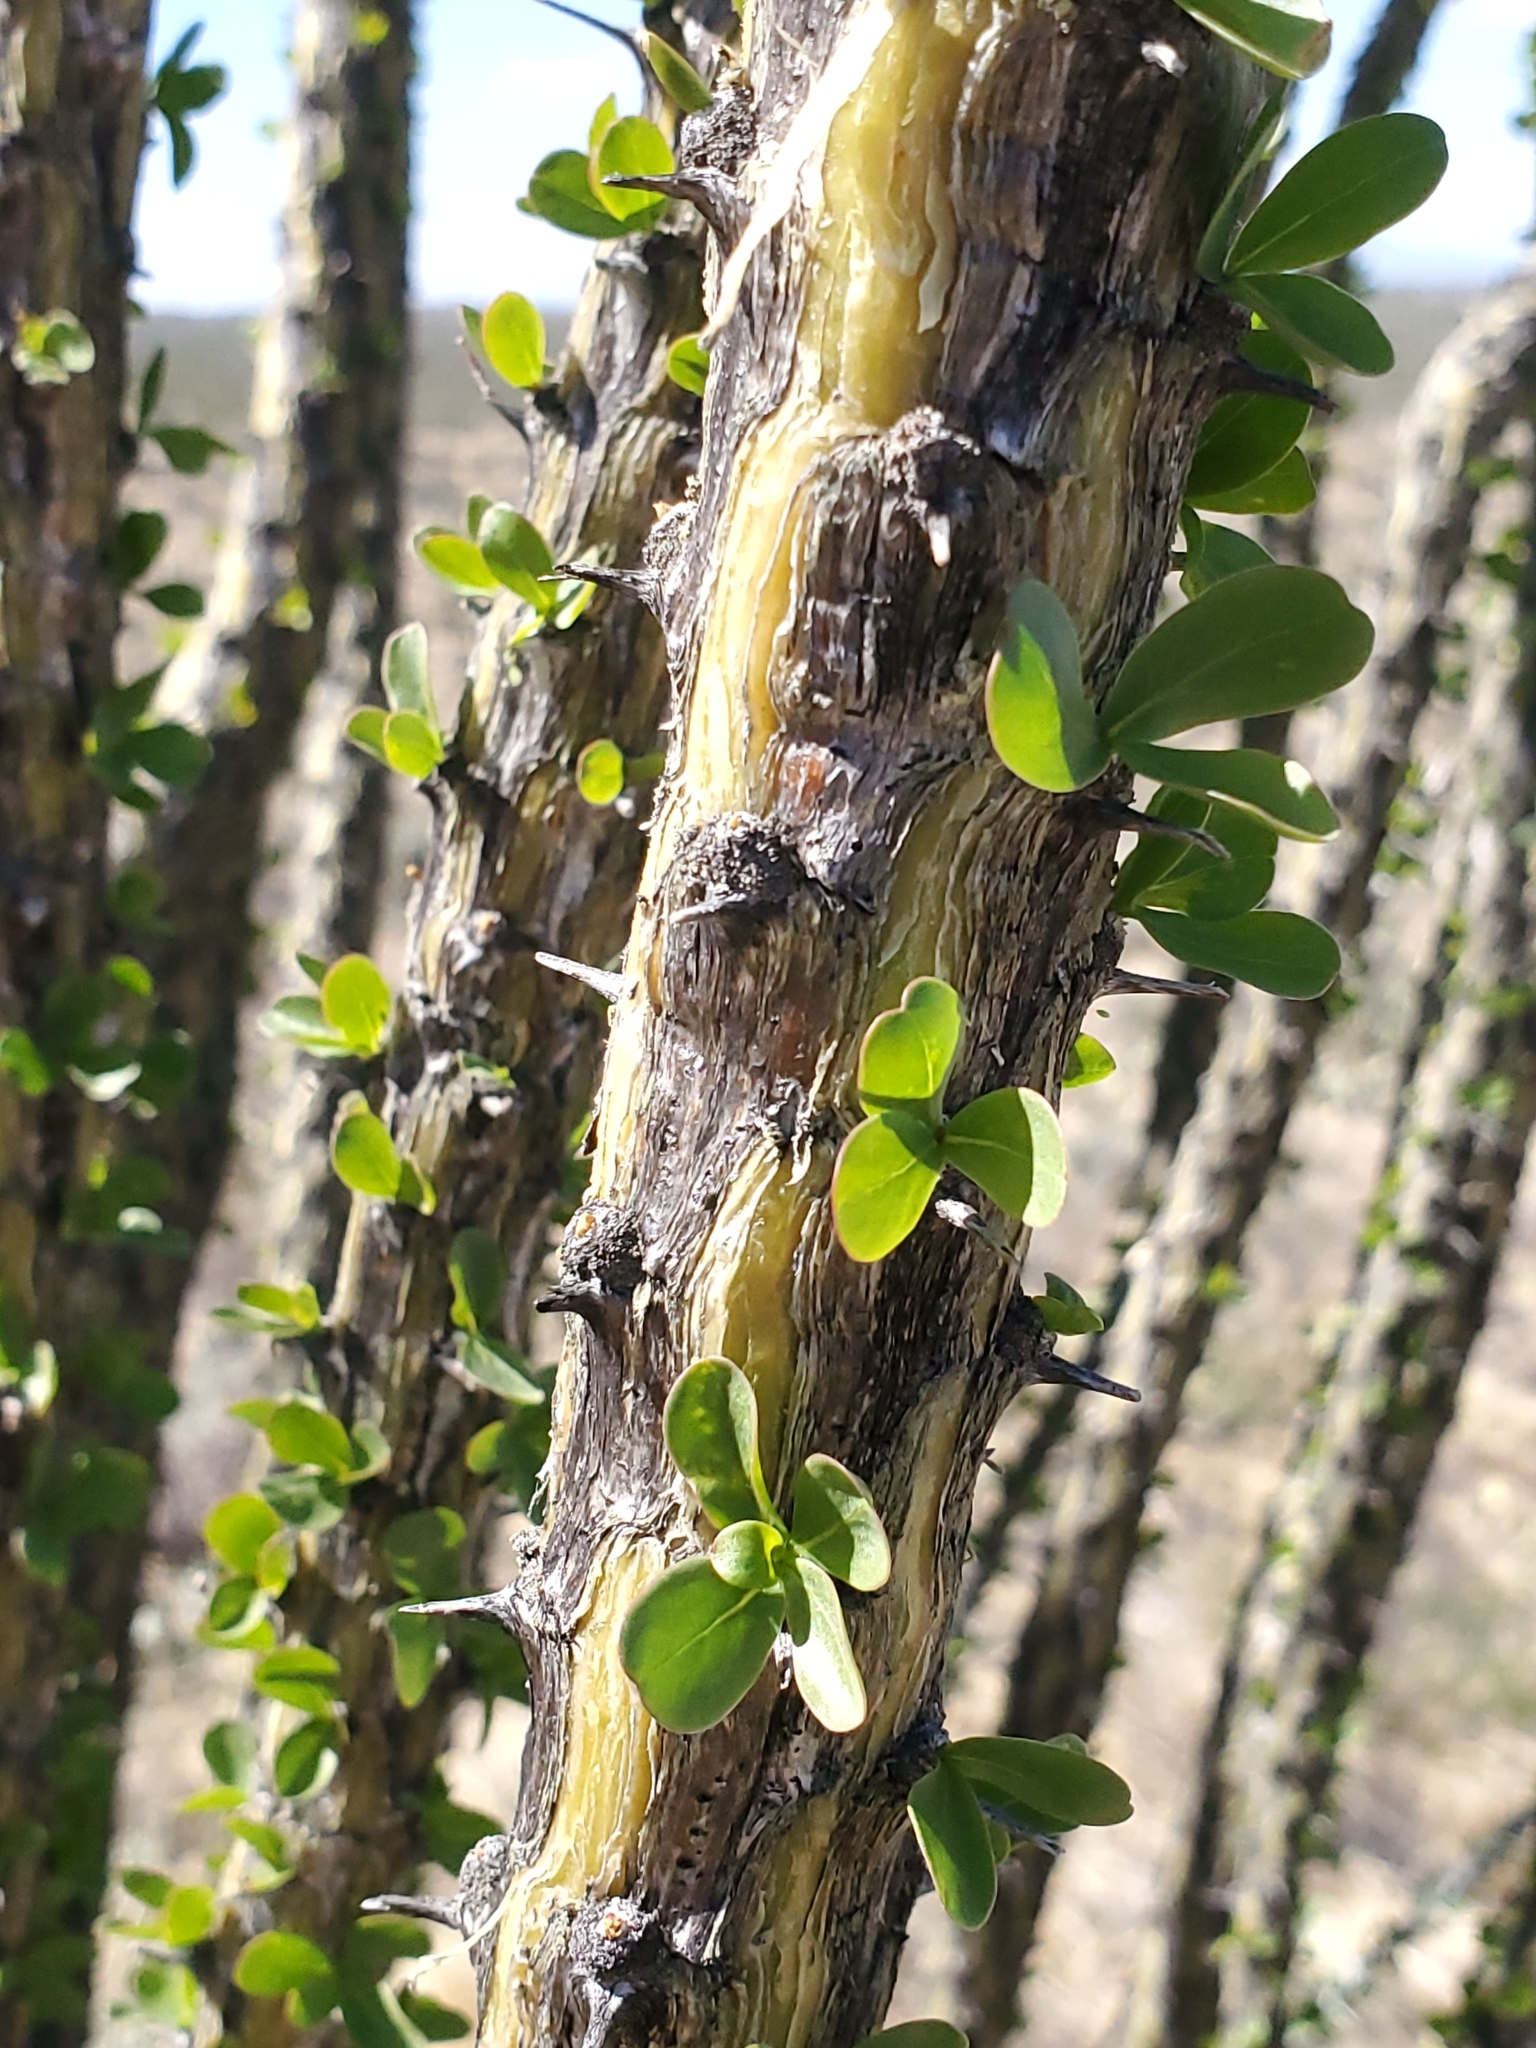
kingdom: Plantae
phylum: Tracheophyta
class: Magnoliopsida
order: Ericales
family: Fouquieriaceae
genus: Fouquieria
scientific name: Fouquieria splendens
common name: Vine-cactus
